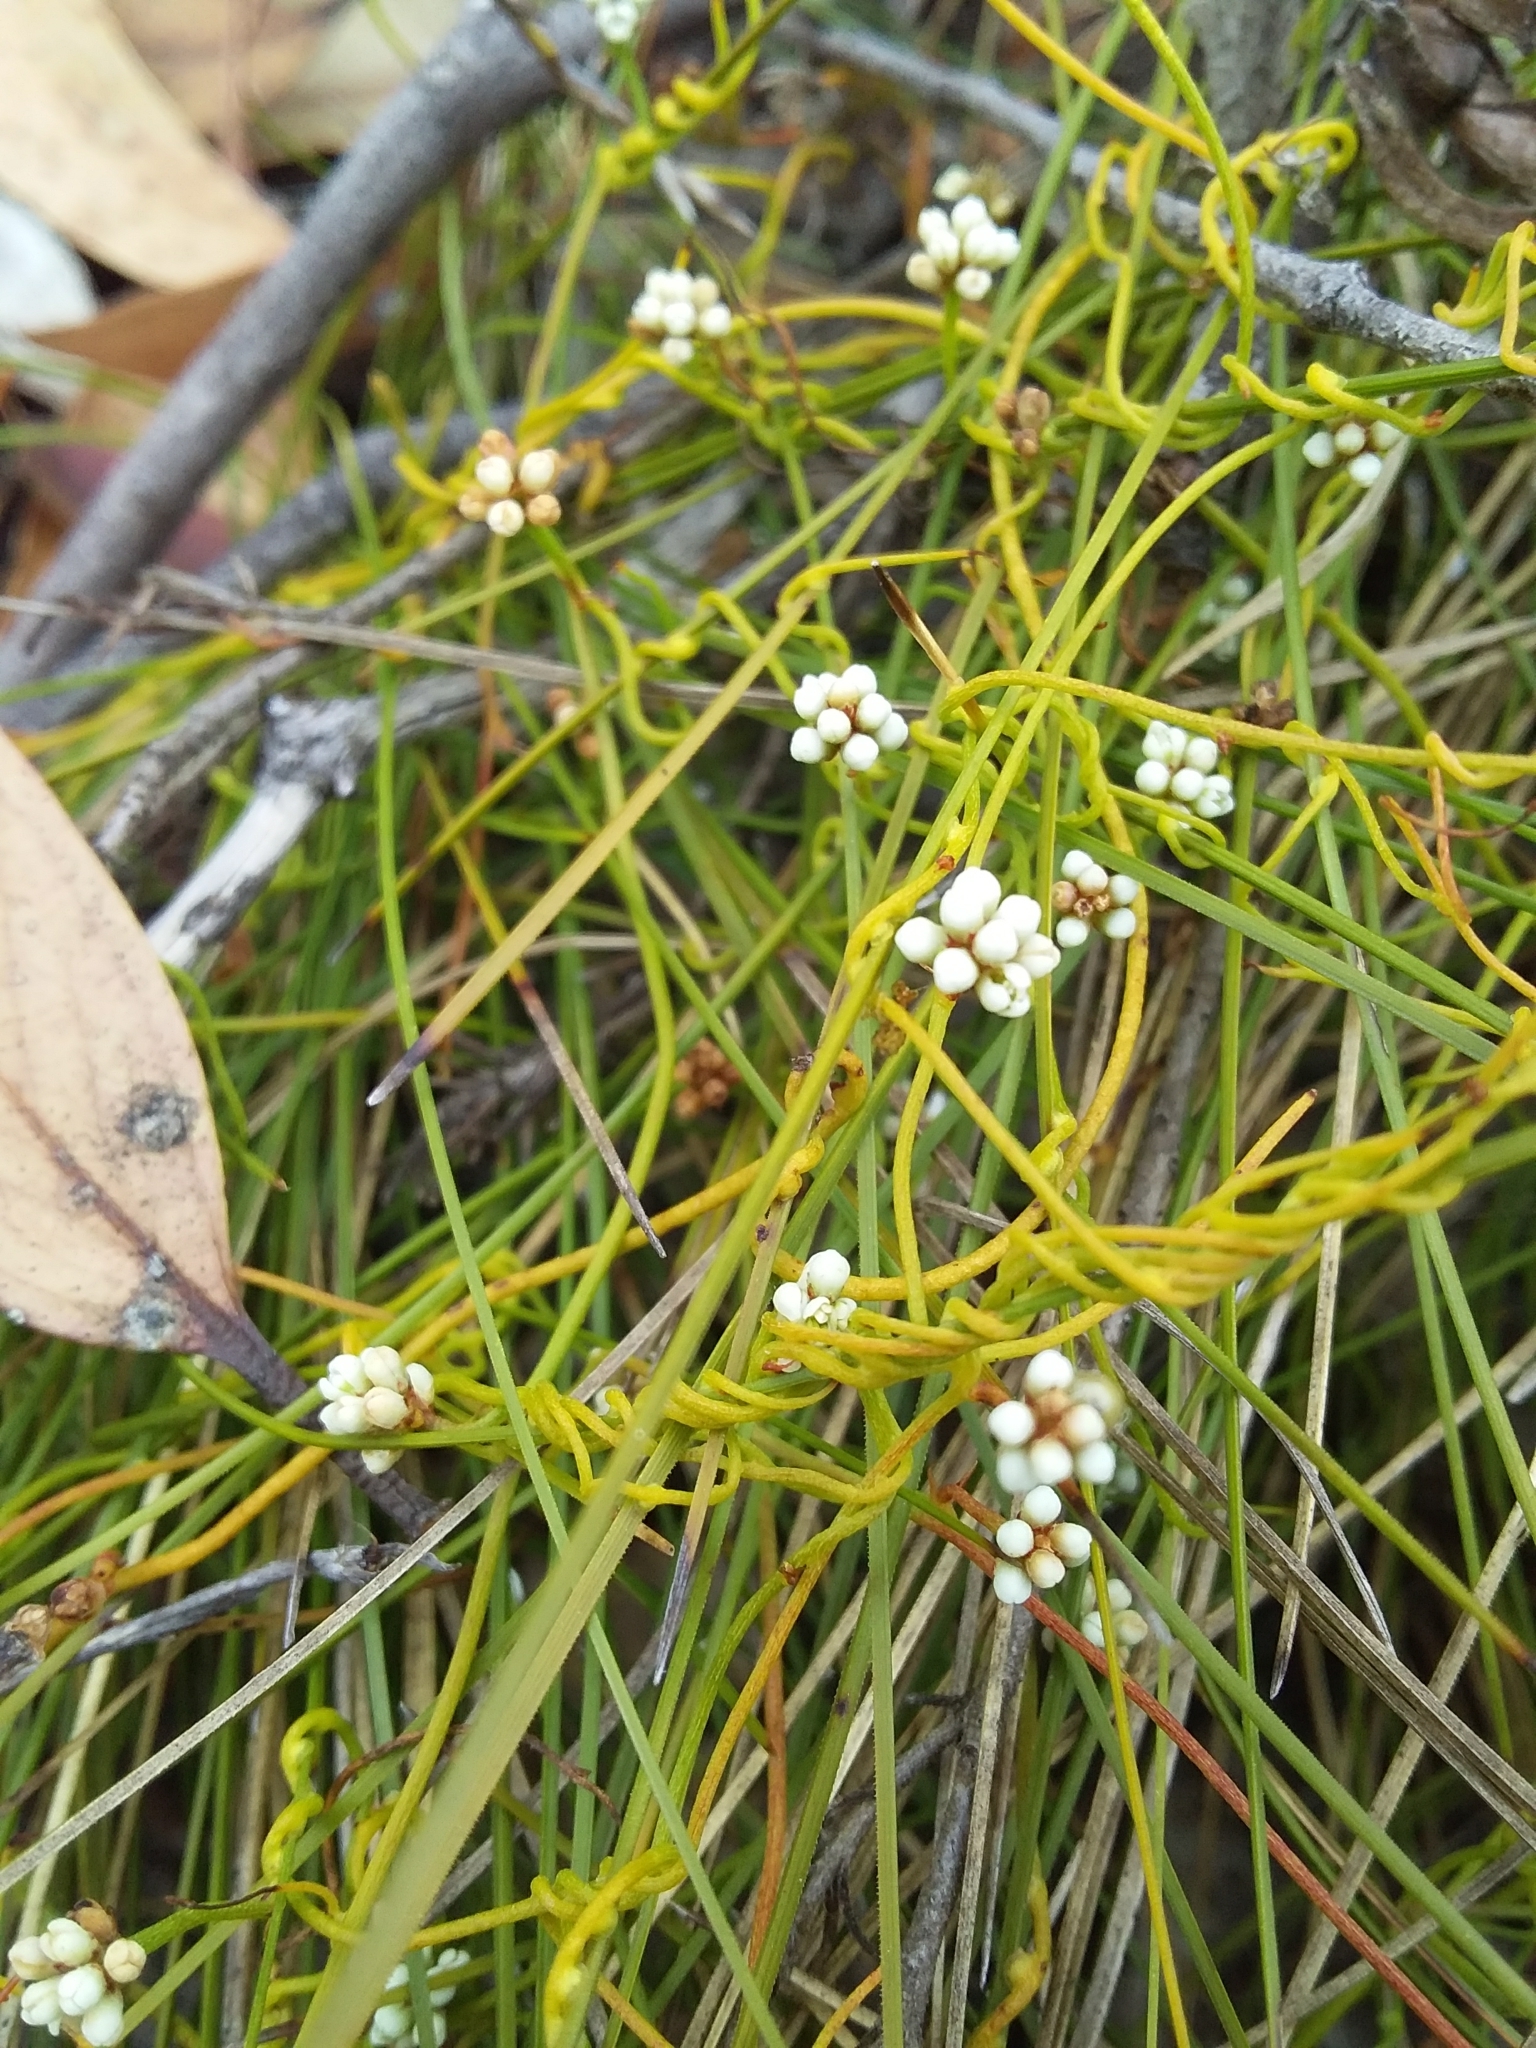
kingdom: Plantae
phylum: Tracheophyta
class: Magnoliopsida
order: Laurales
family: Lauraceae
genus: Cassytha
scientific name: Cassytha glabella
